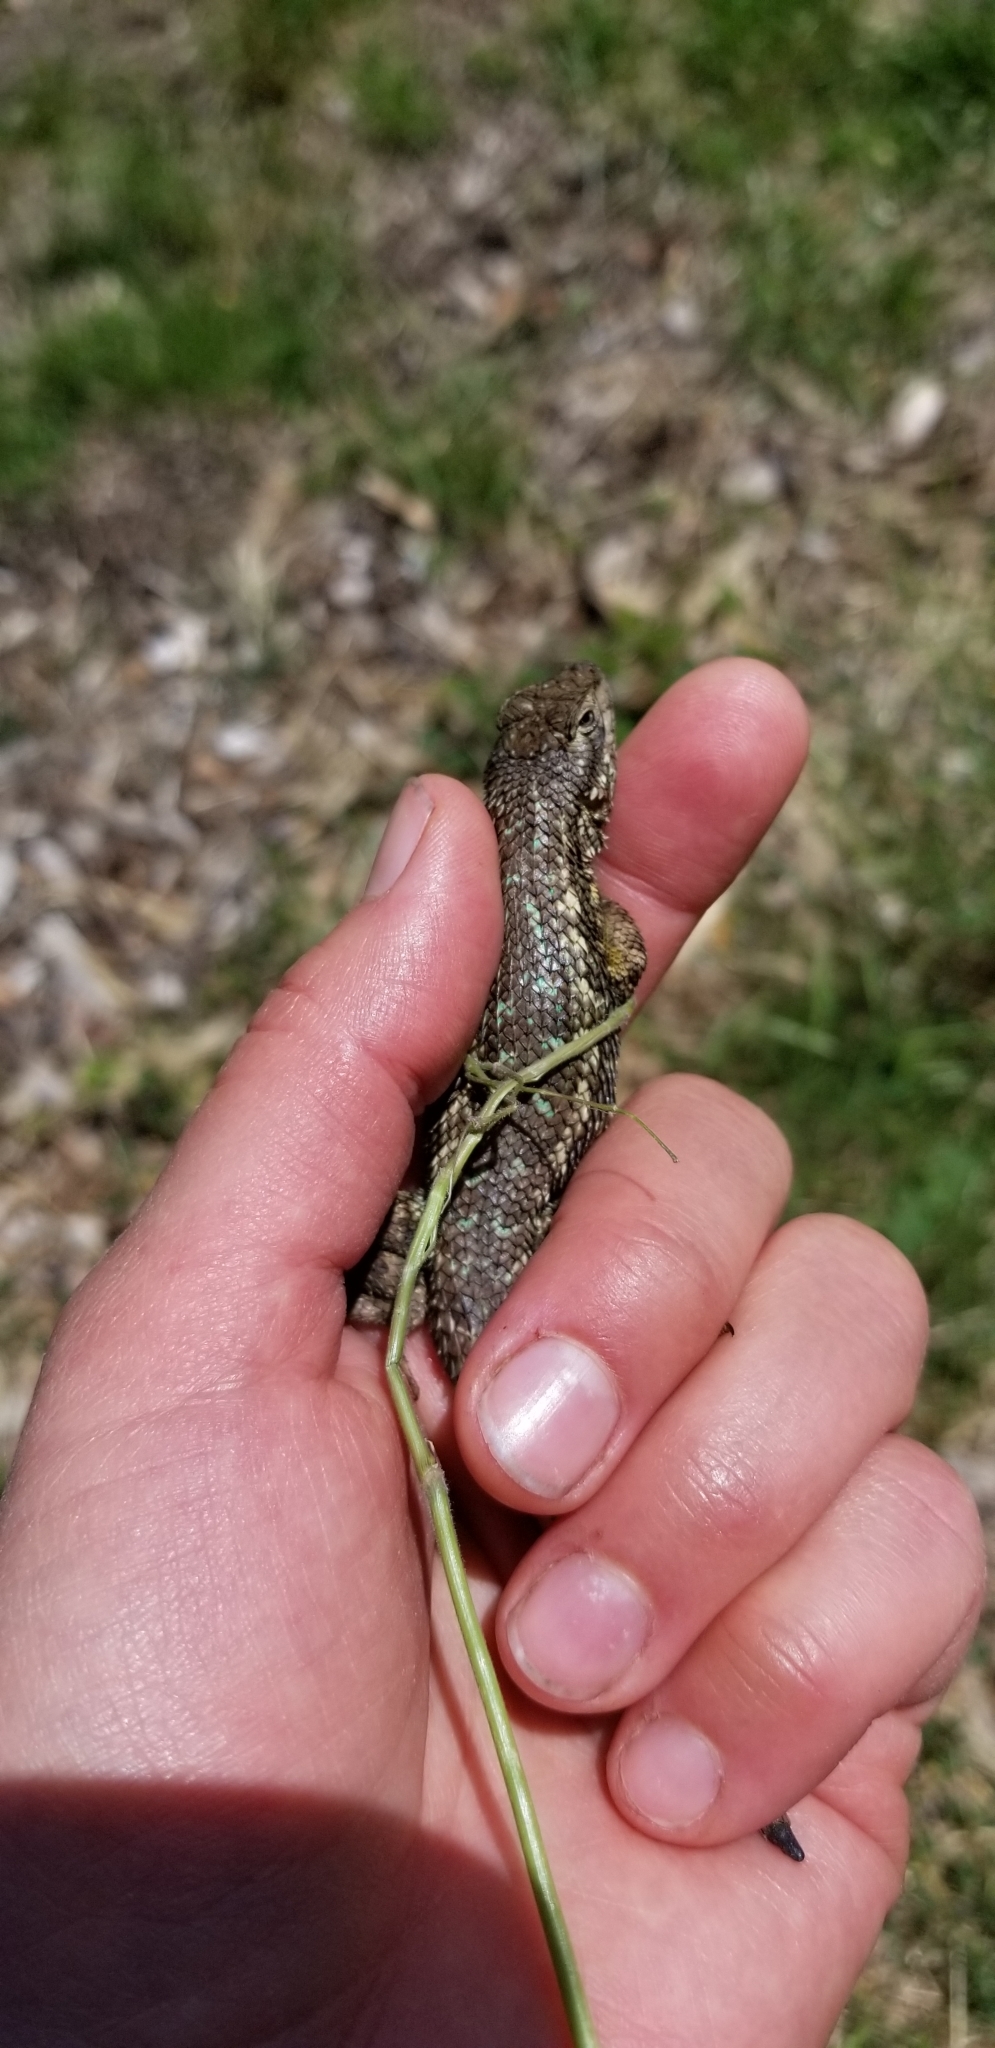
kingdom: Animalia
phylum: Chordata
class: Squamata
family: Phrynosomatidae
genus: Sceloporus
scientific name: Sceloporus occidentalis
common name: Western fence lizard
